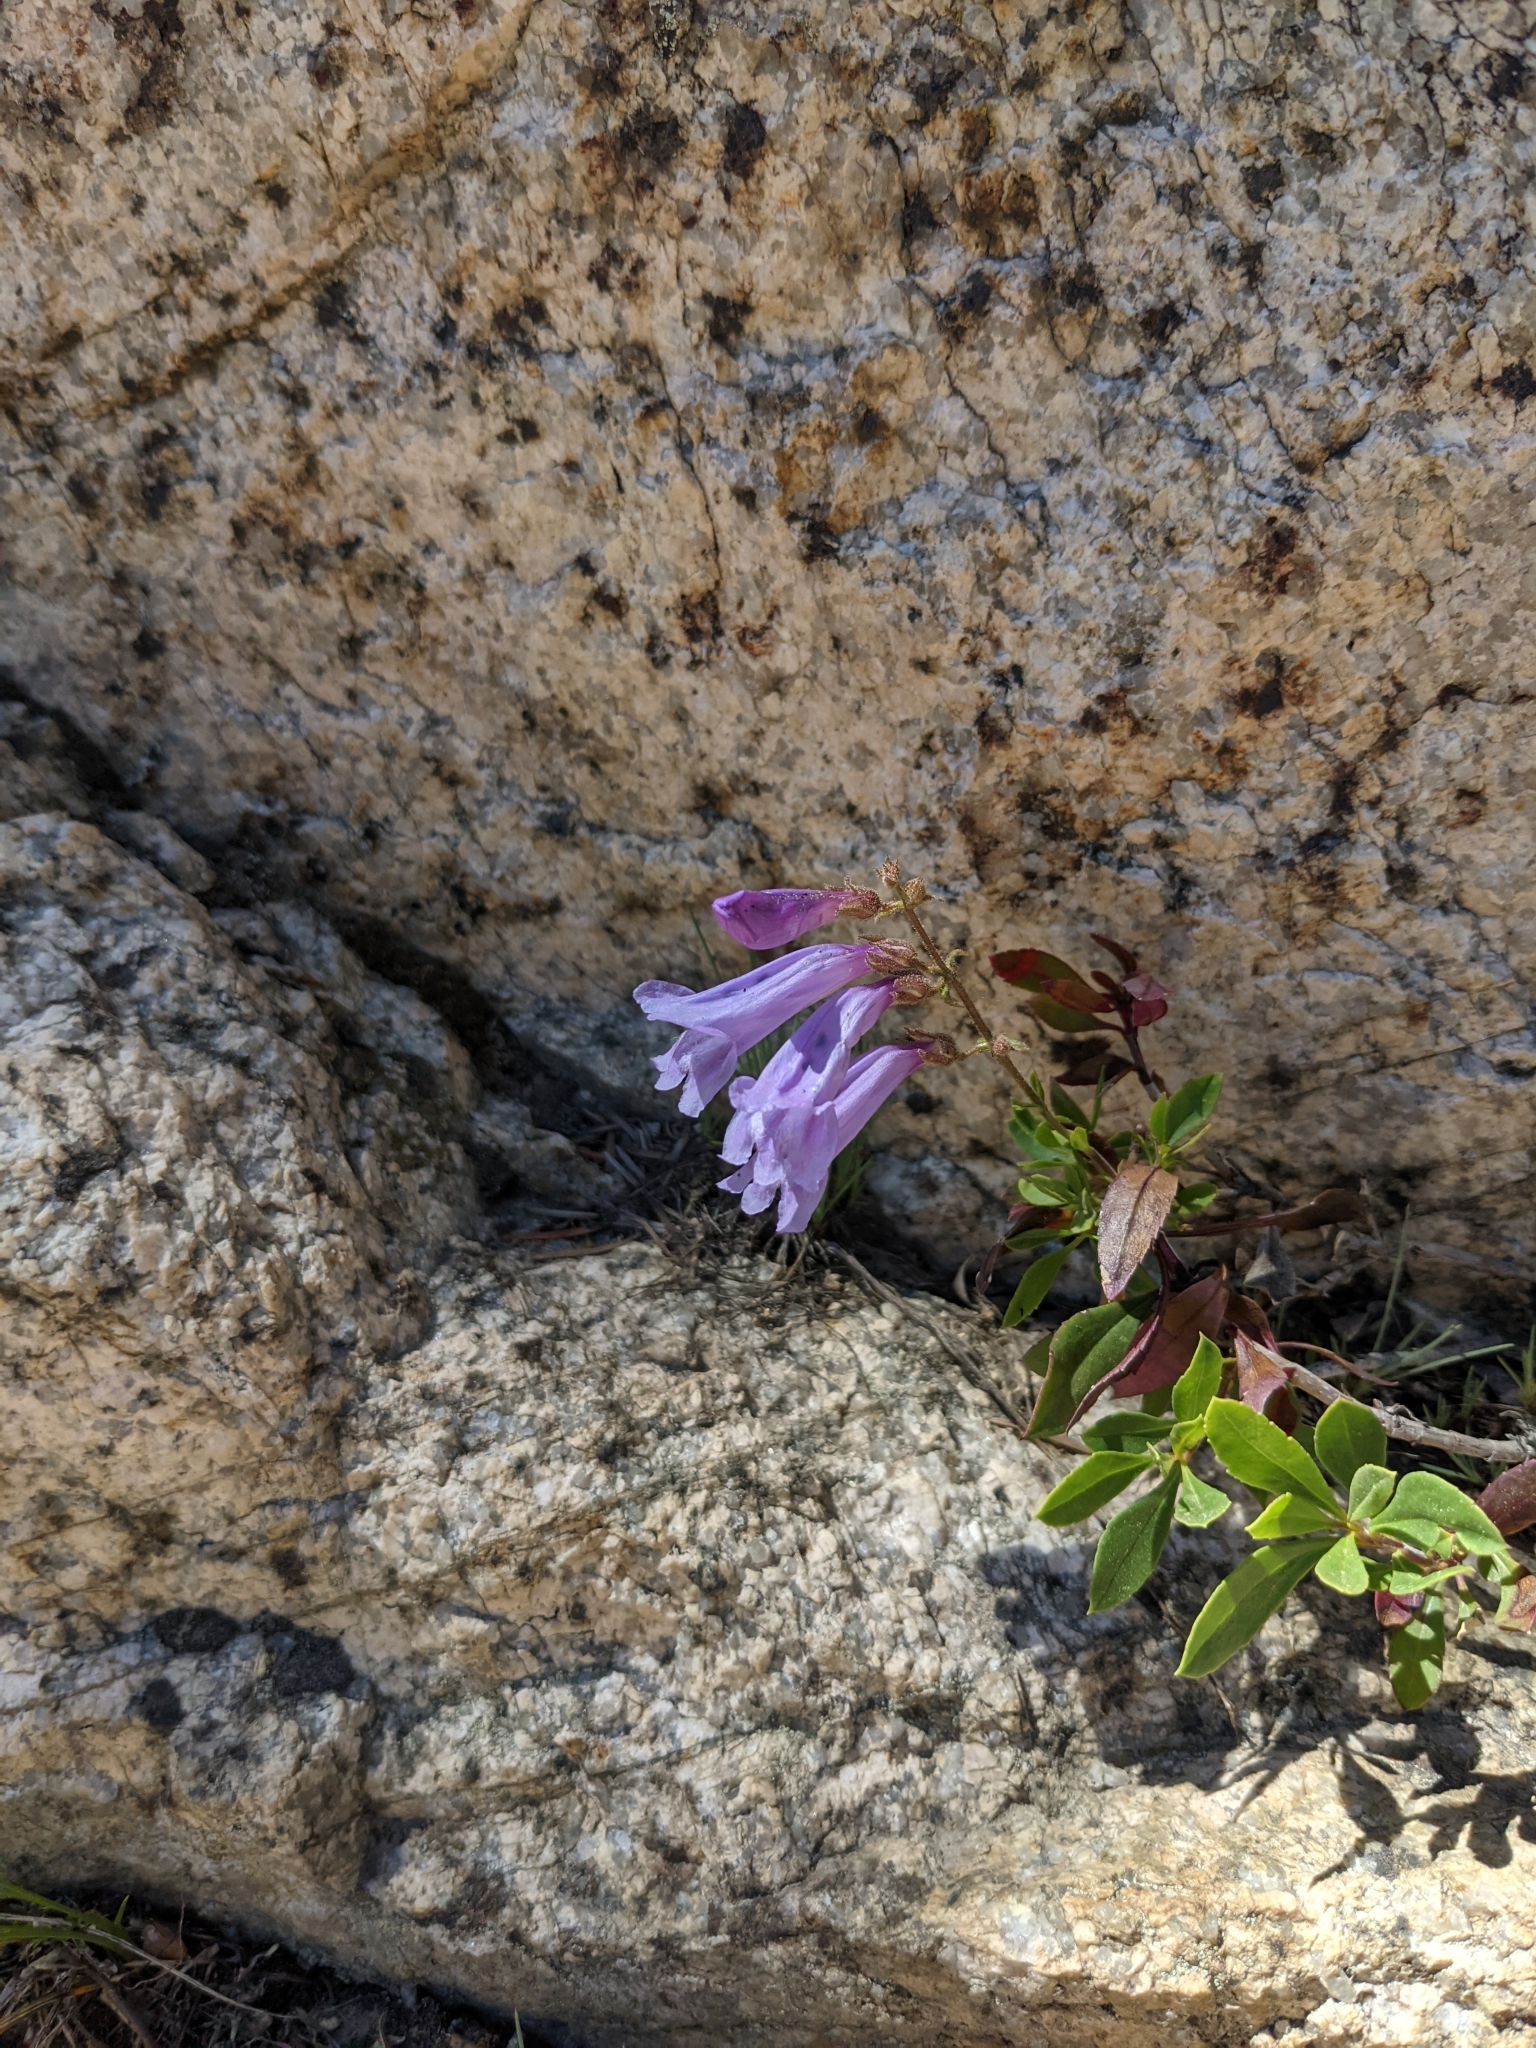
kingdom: Plantae
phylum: Tracheophyta
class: Magnoliopsida
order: Lamiales
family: Plantaginaceae
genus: Penstemon
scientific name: Penstemon fruticosus
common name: Bush penstemon
